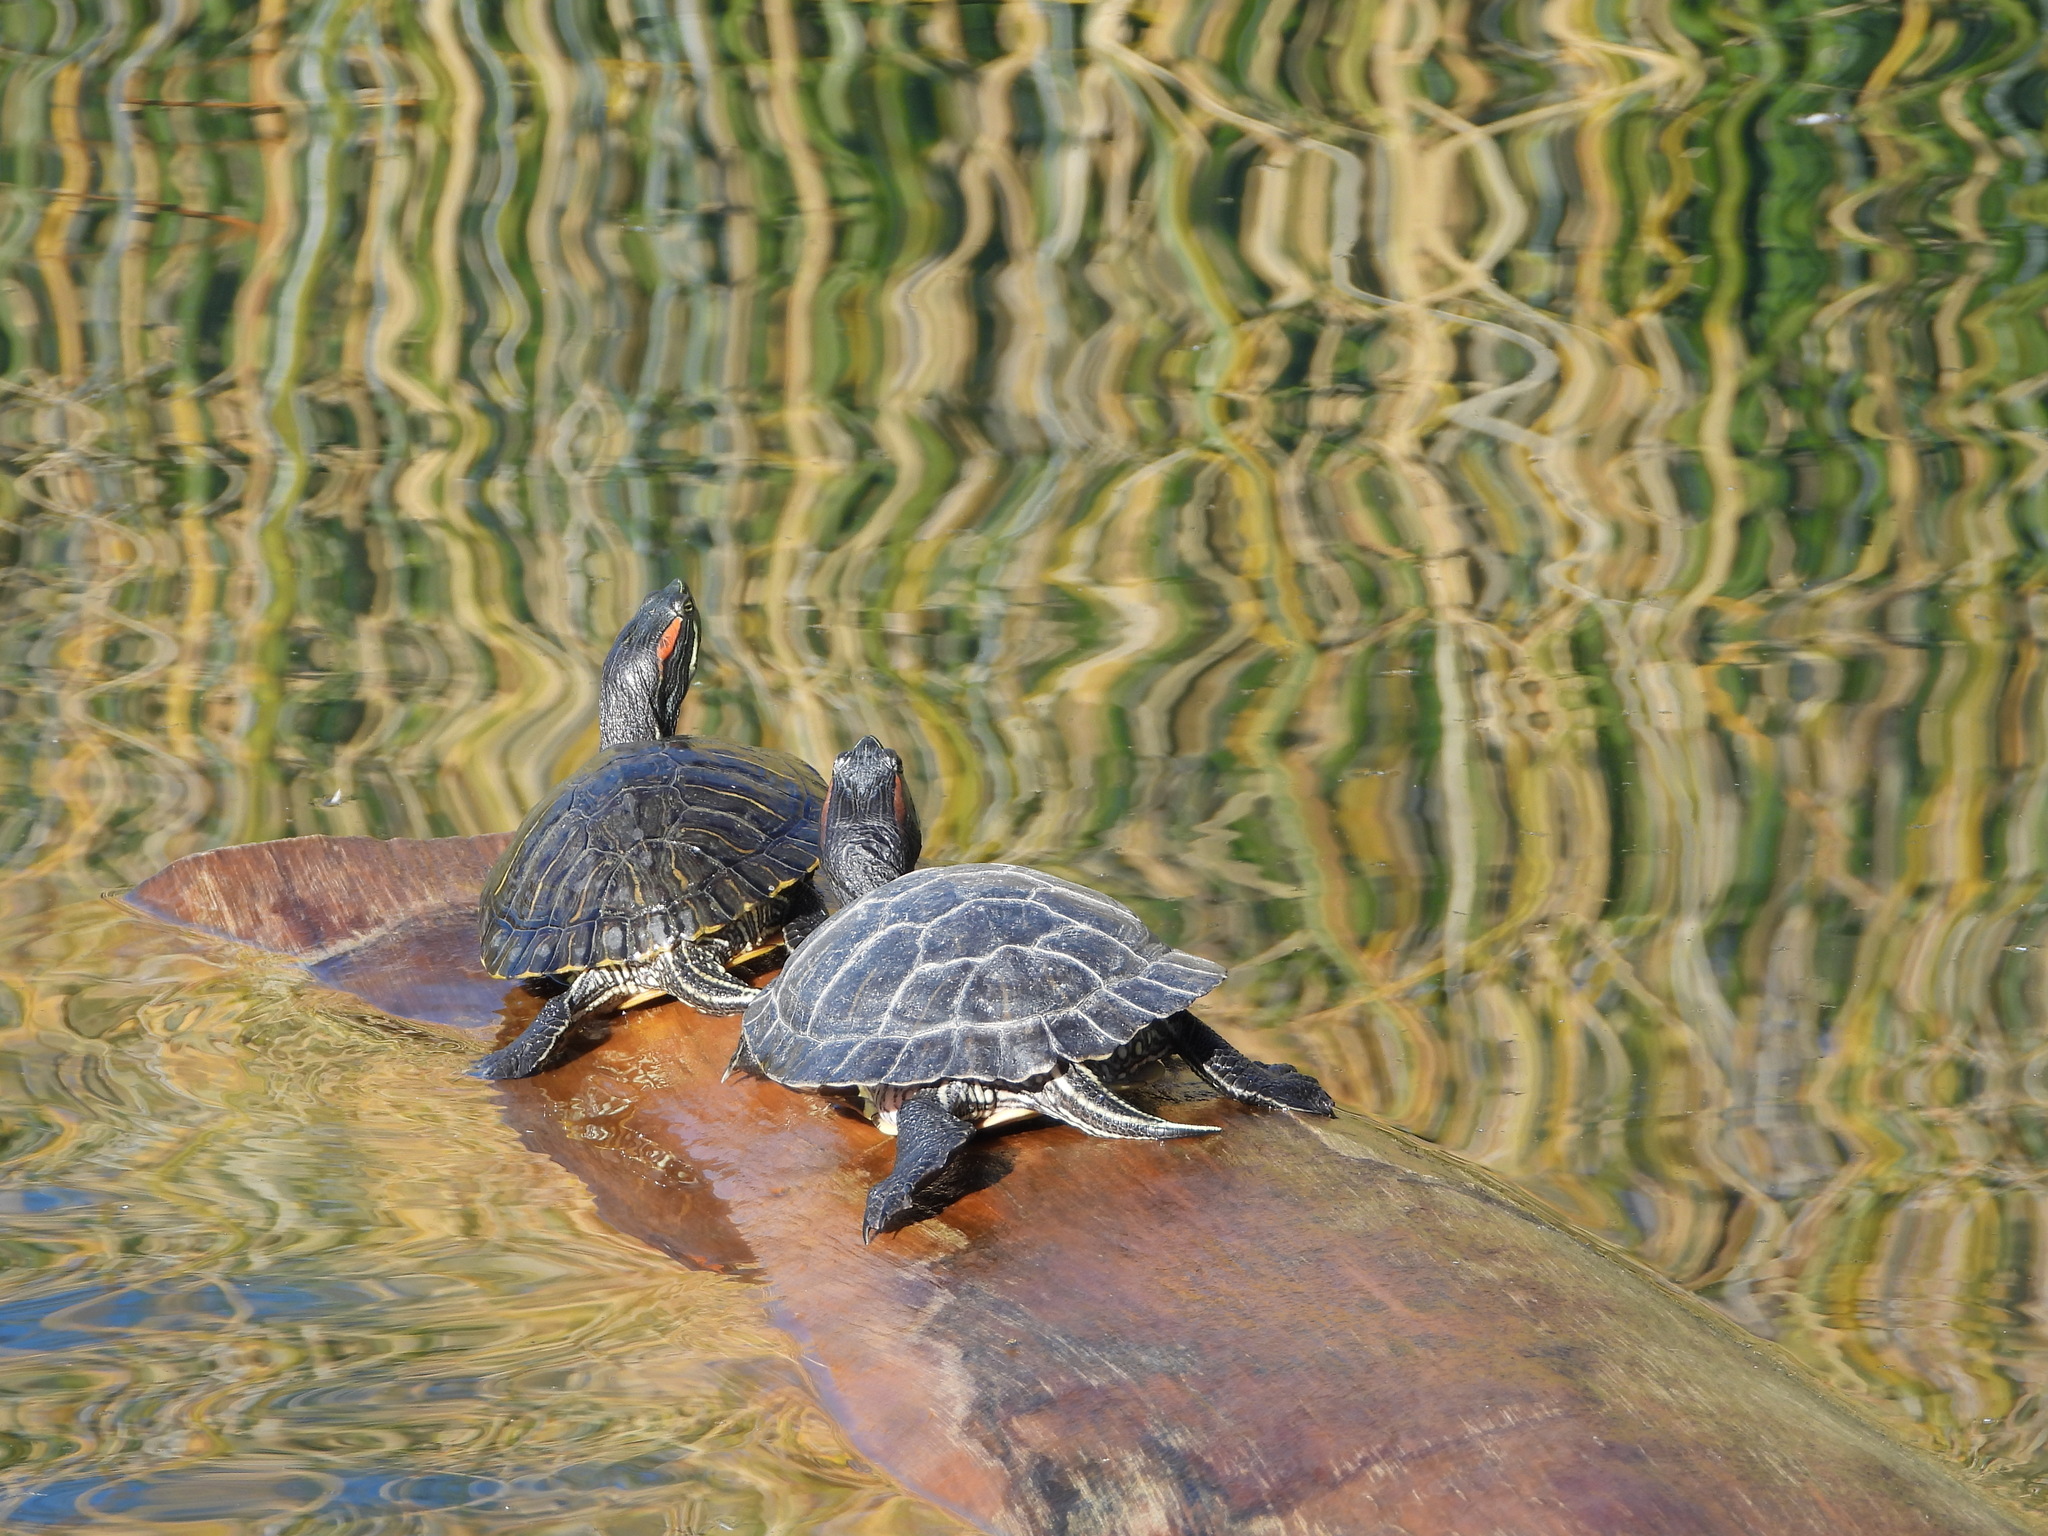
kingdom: Animalia
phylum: Chordata
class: Testudines
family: Emydidae
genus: Trachemys
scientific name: Trachemys scripta
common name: Slider
